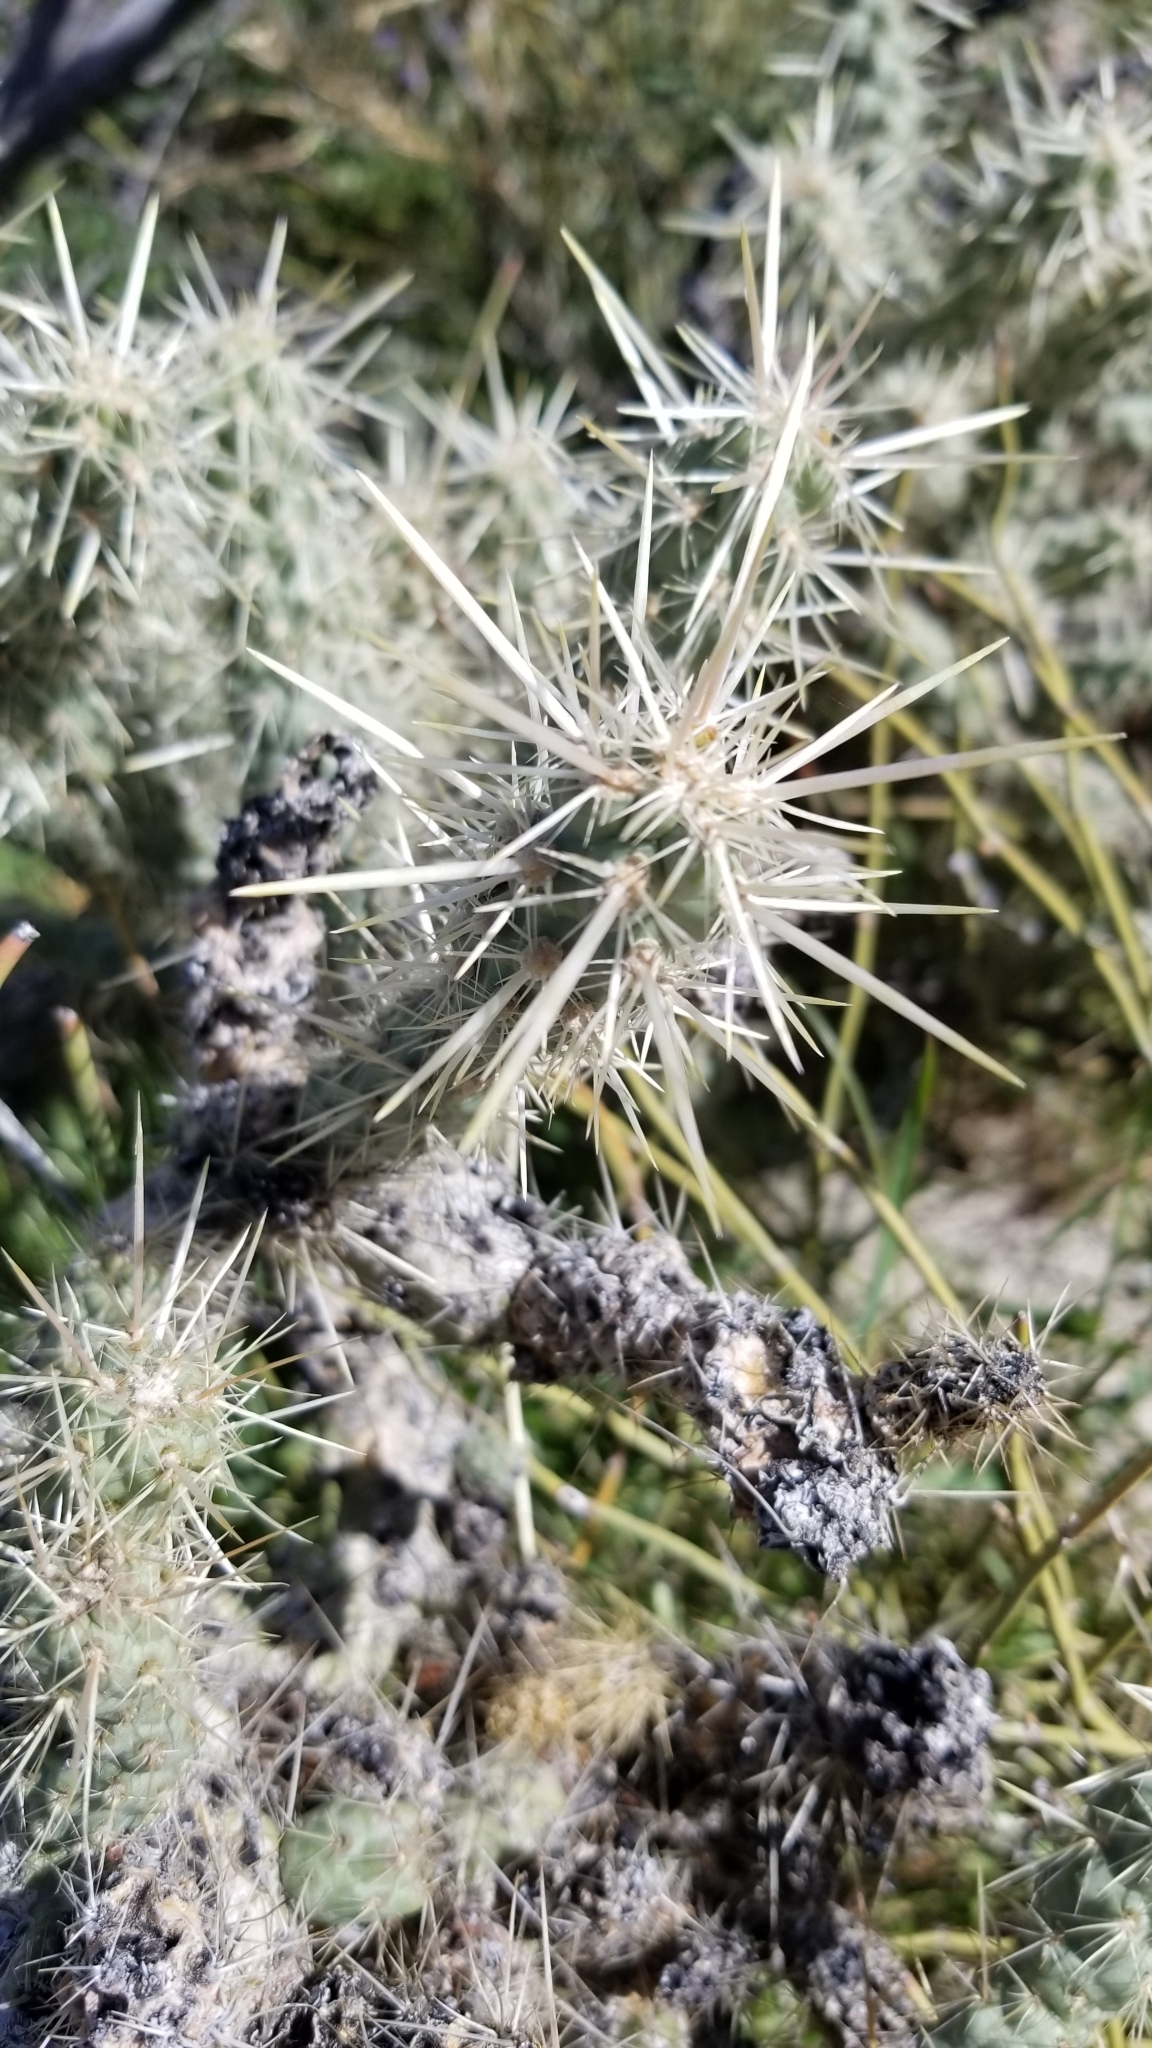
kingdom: Plantae
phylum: Tracheophyta
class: Magnoliopsida
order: Caryophyllales
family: Cactaceae
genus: Cylindropuntia
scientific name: Cylindropuntia echinocarpa
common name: Ground cholla
